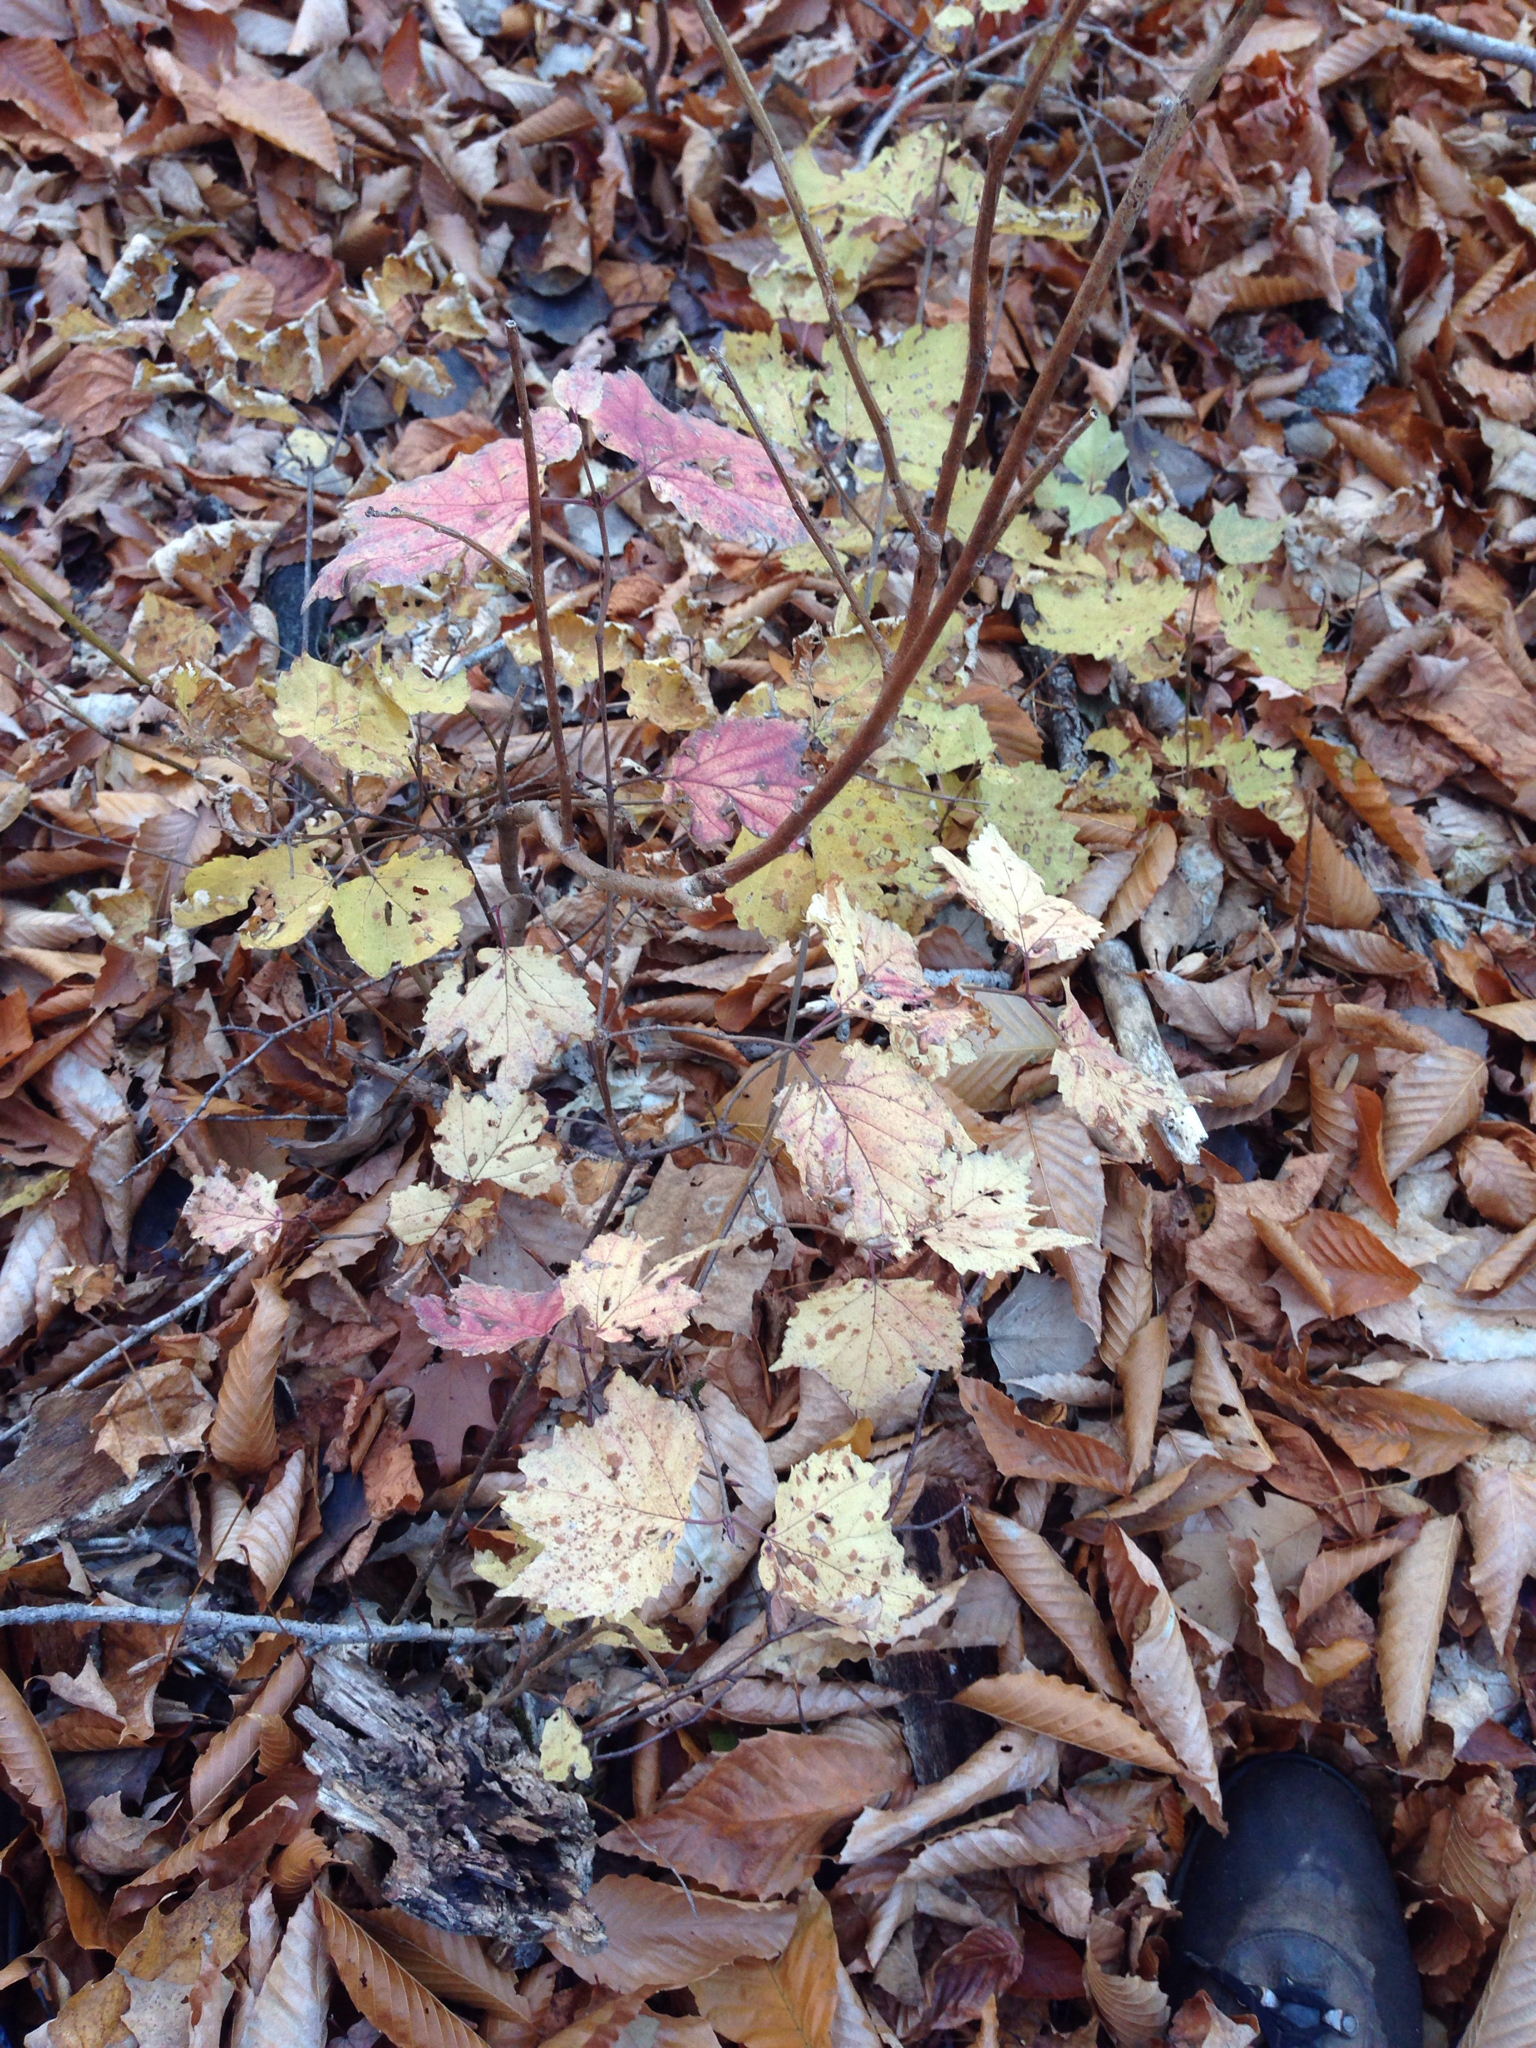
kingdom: Plantae
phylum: Tracheophyta
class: Magnoliopsida
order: Dipsacales
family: Viburnaceae
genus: Viburnum
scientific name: Viburnum acerifolium
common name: Dockmackie
